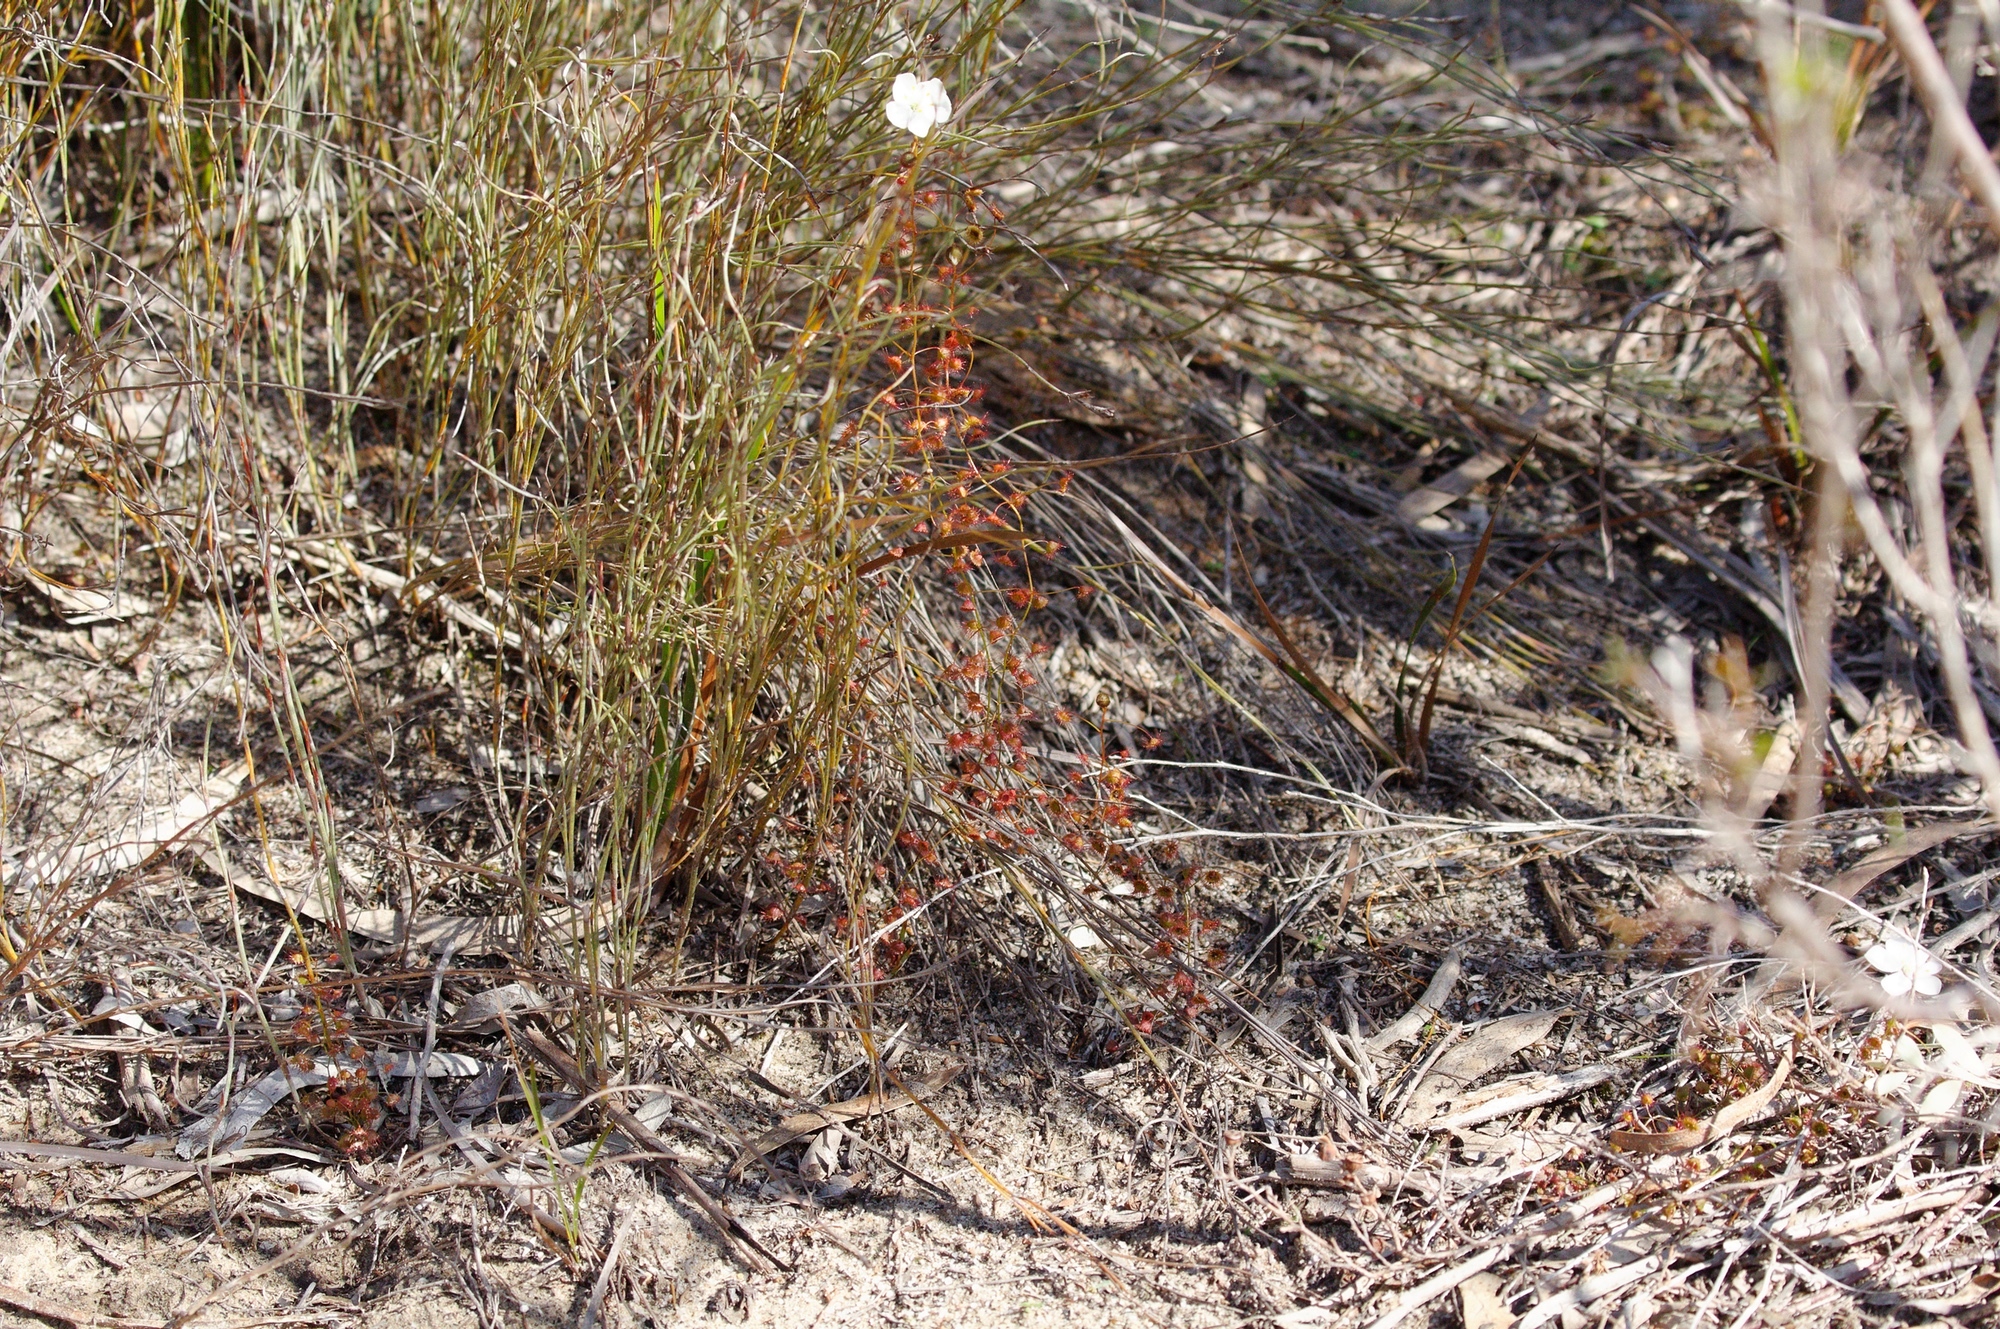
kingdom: Plantae
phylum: Tracheophyta
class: Magnoliopsida
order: Caryophyllales
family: Droseraceae
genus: Drosera
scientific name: Drosera planchonii
